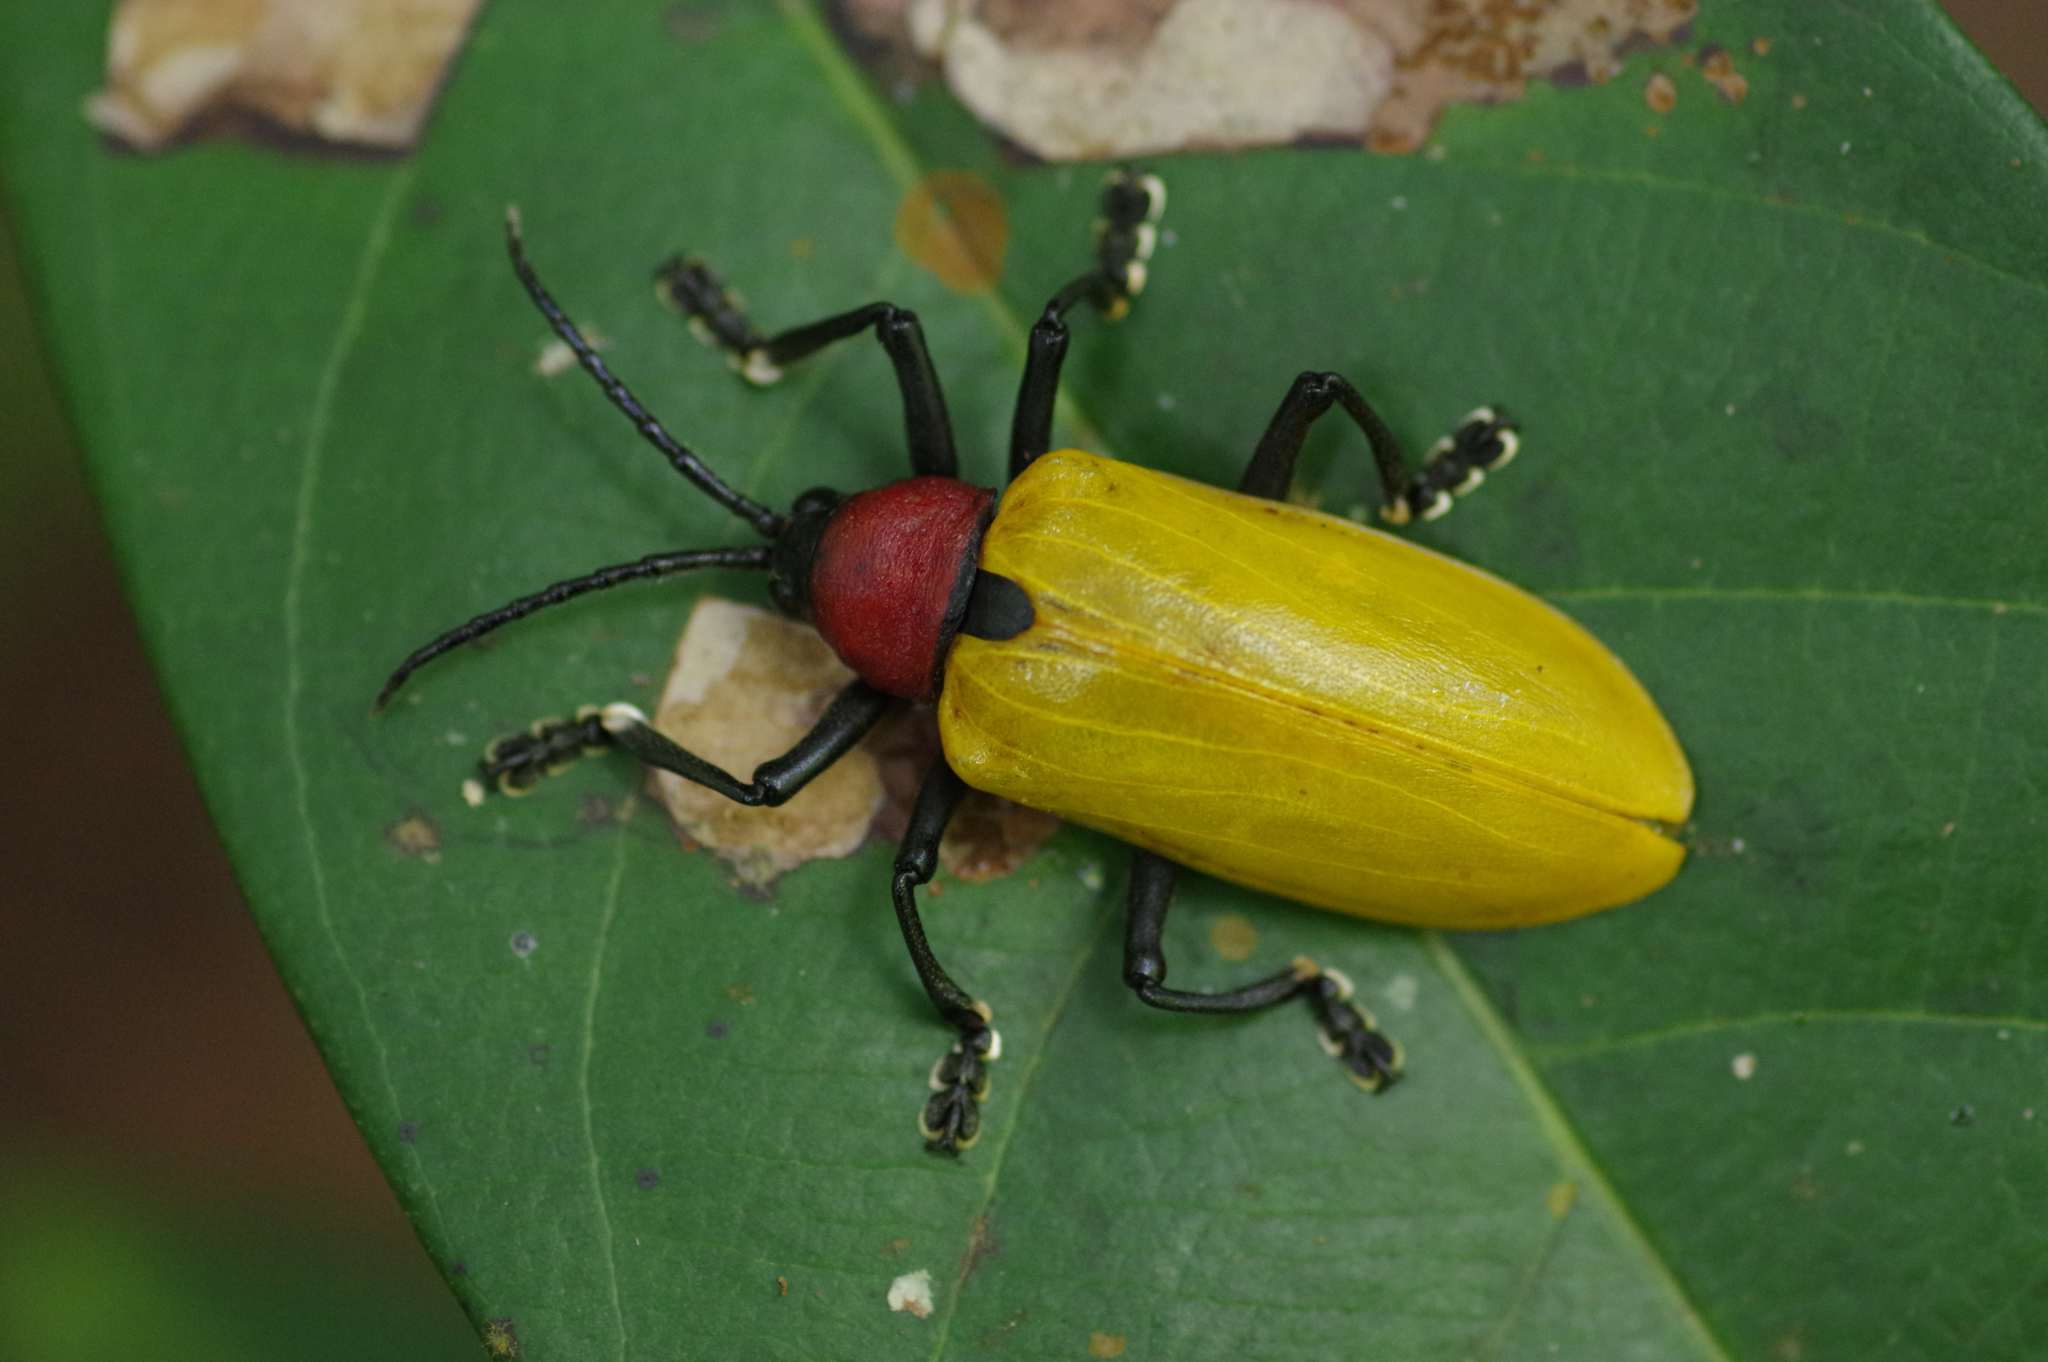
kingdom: Animalia
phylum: Arthropoda
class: Insecta
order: Coleoptera
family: Chrysomelidae
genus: Alurnus
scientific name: Alurnus grossus
